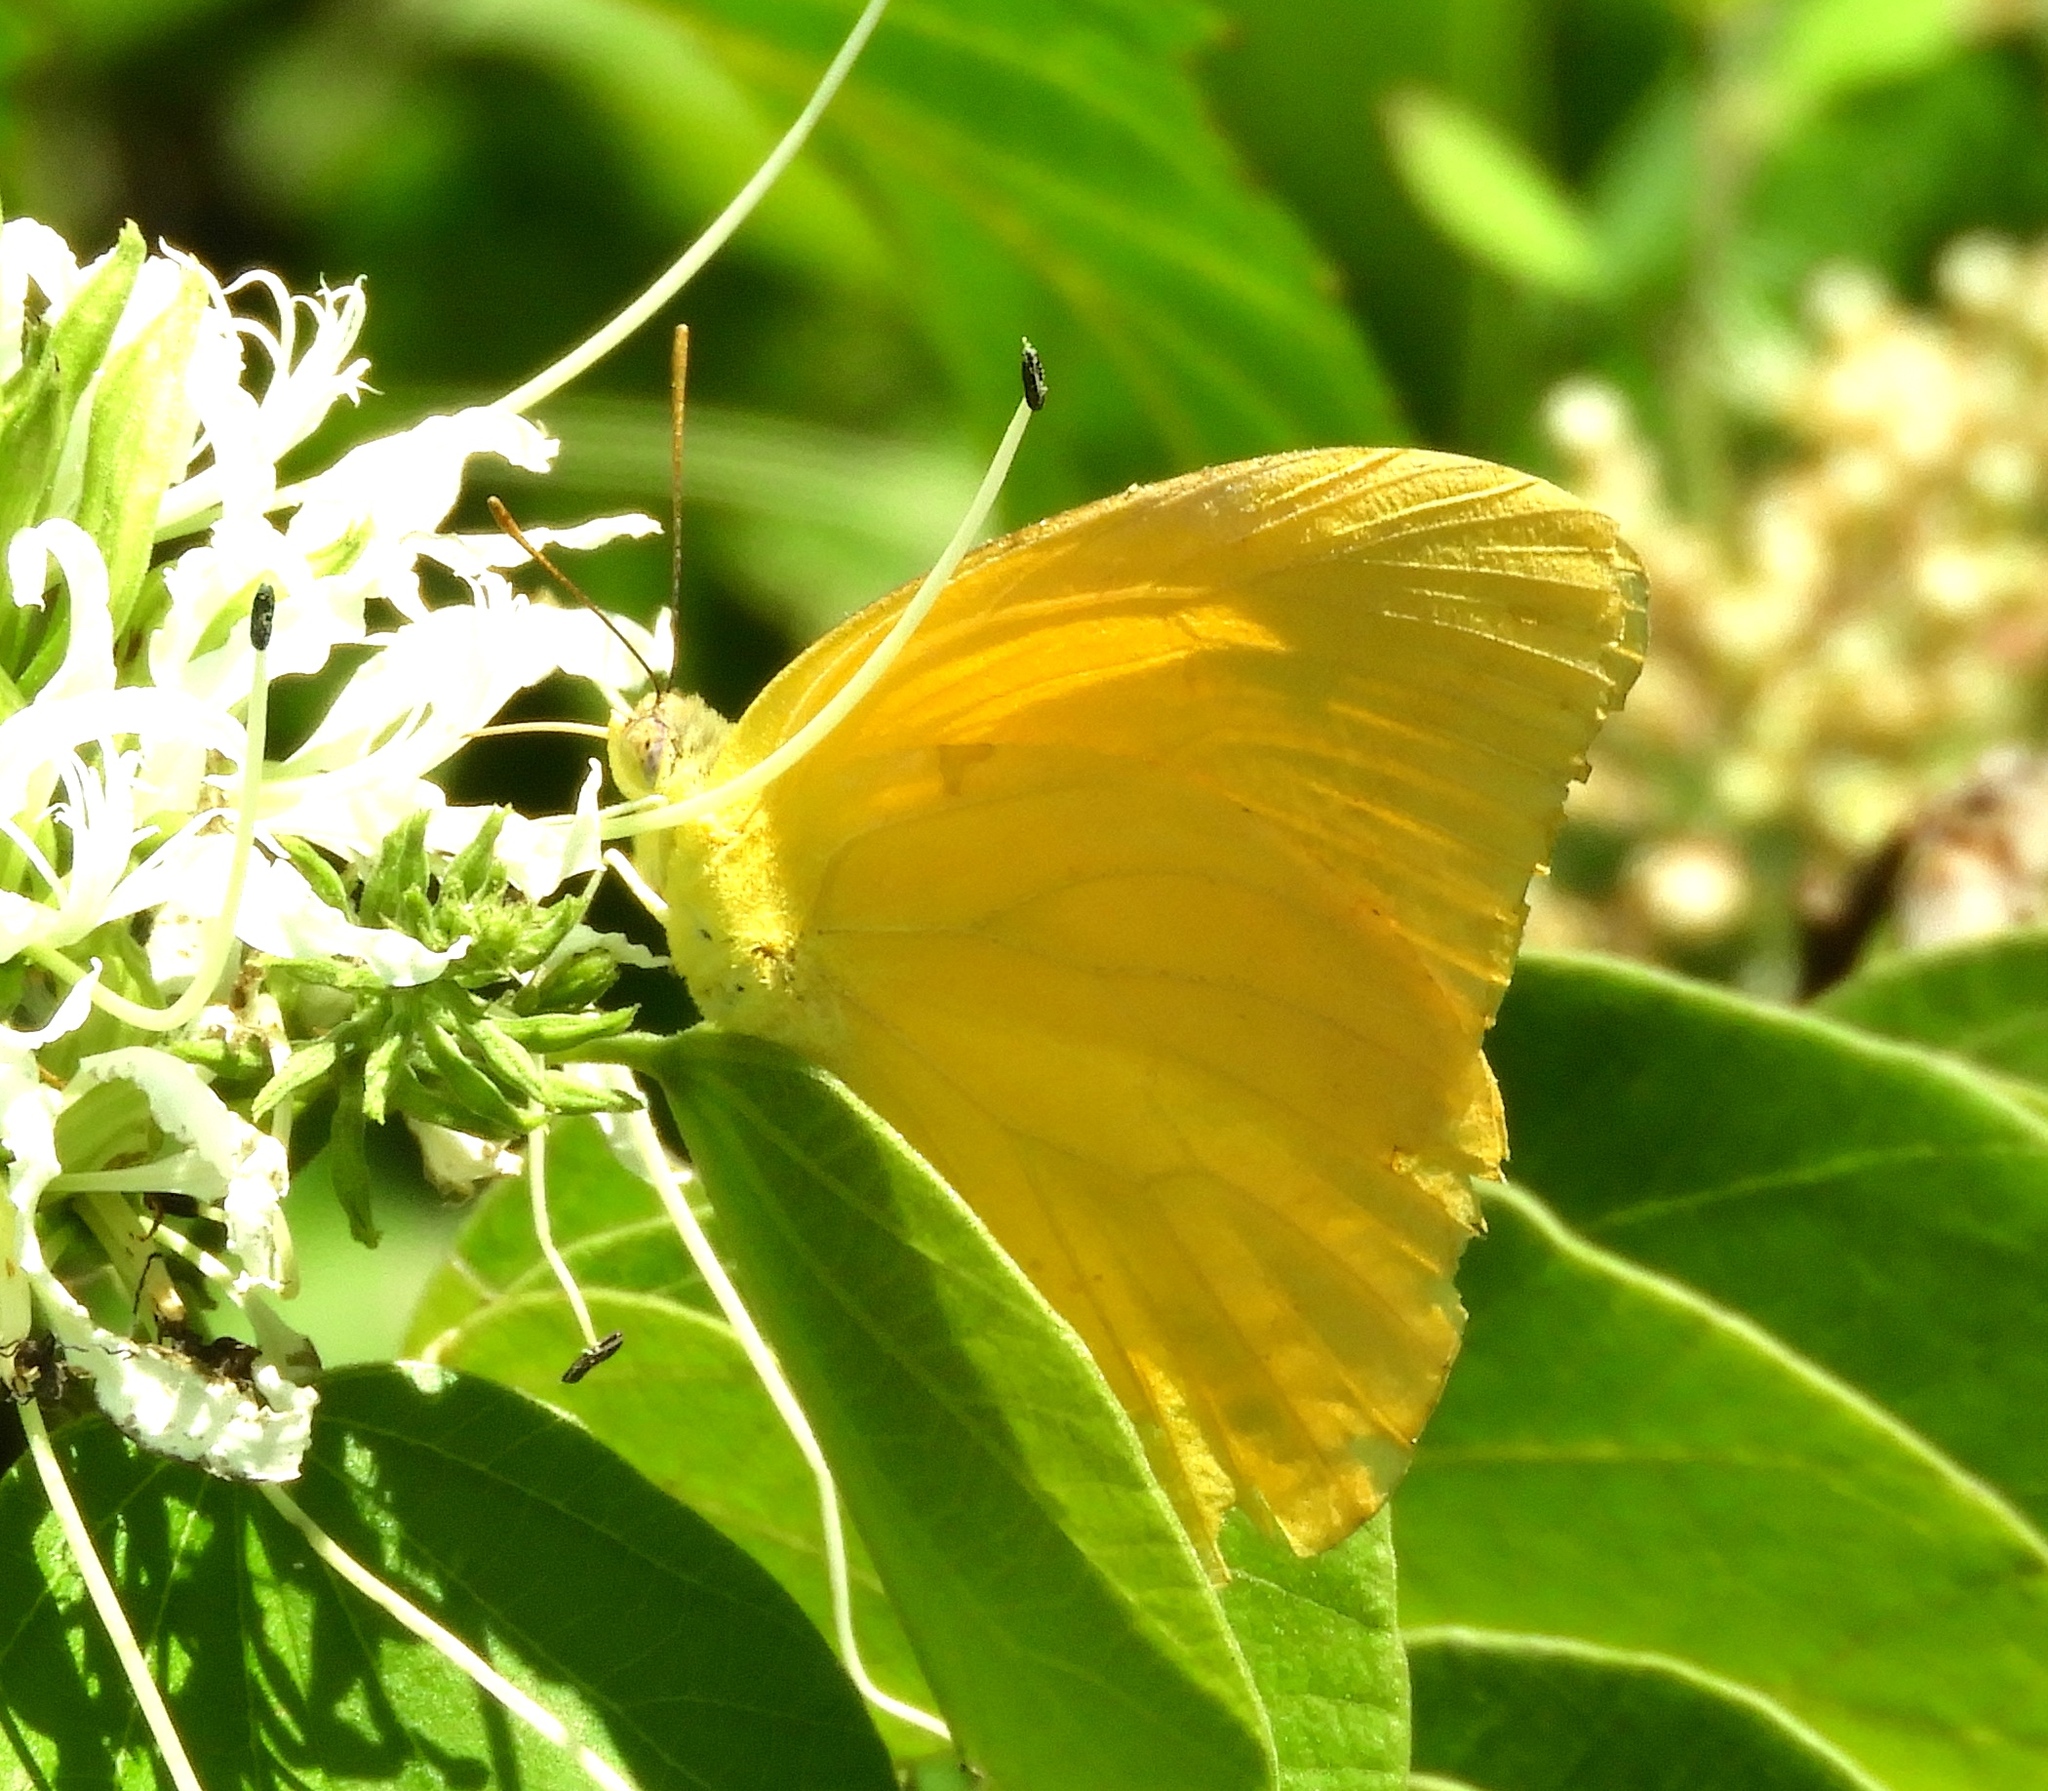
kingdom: Animalia
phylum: Arthropoda
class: Insecta
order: Lepidoptera
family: Pieridae
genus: Phoebis
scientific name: Phoebis agarithe
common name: Large orange sulphur
